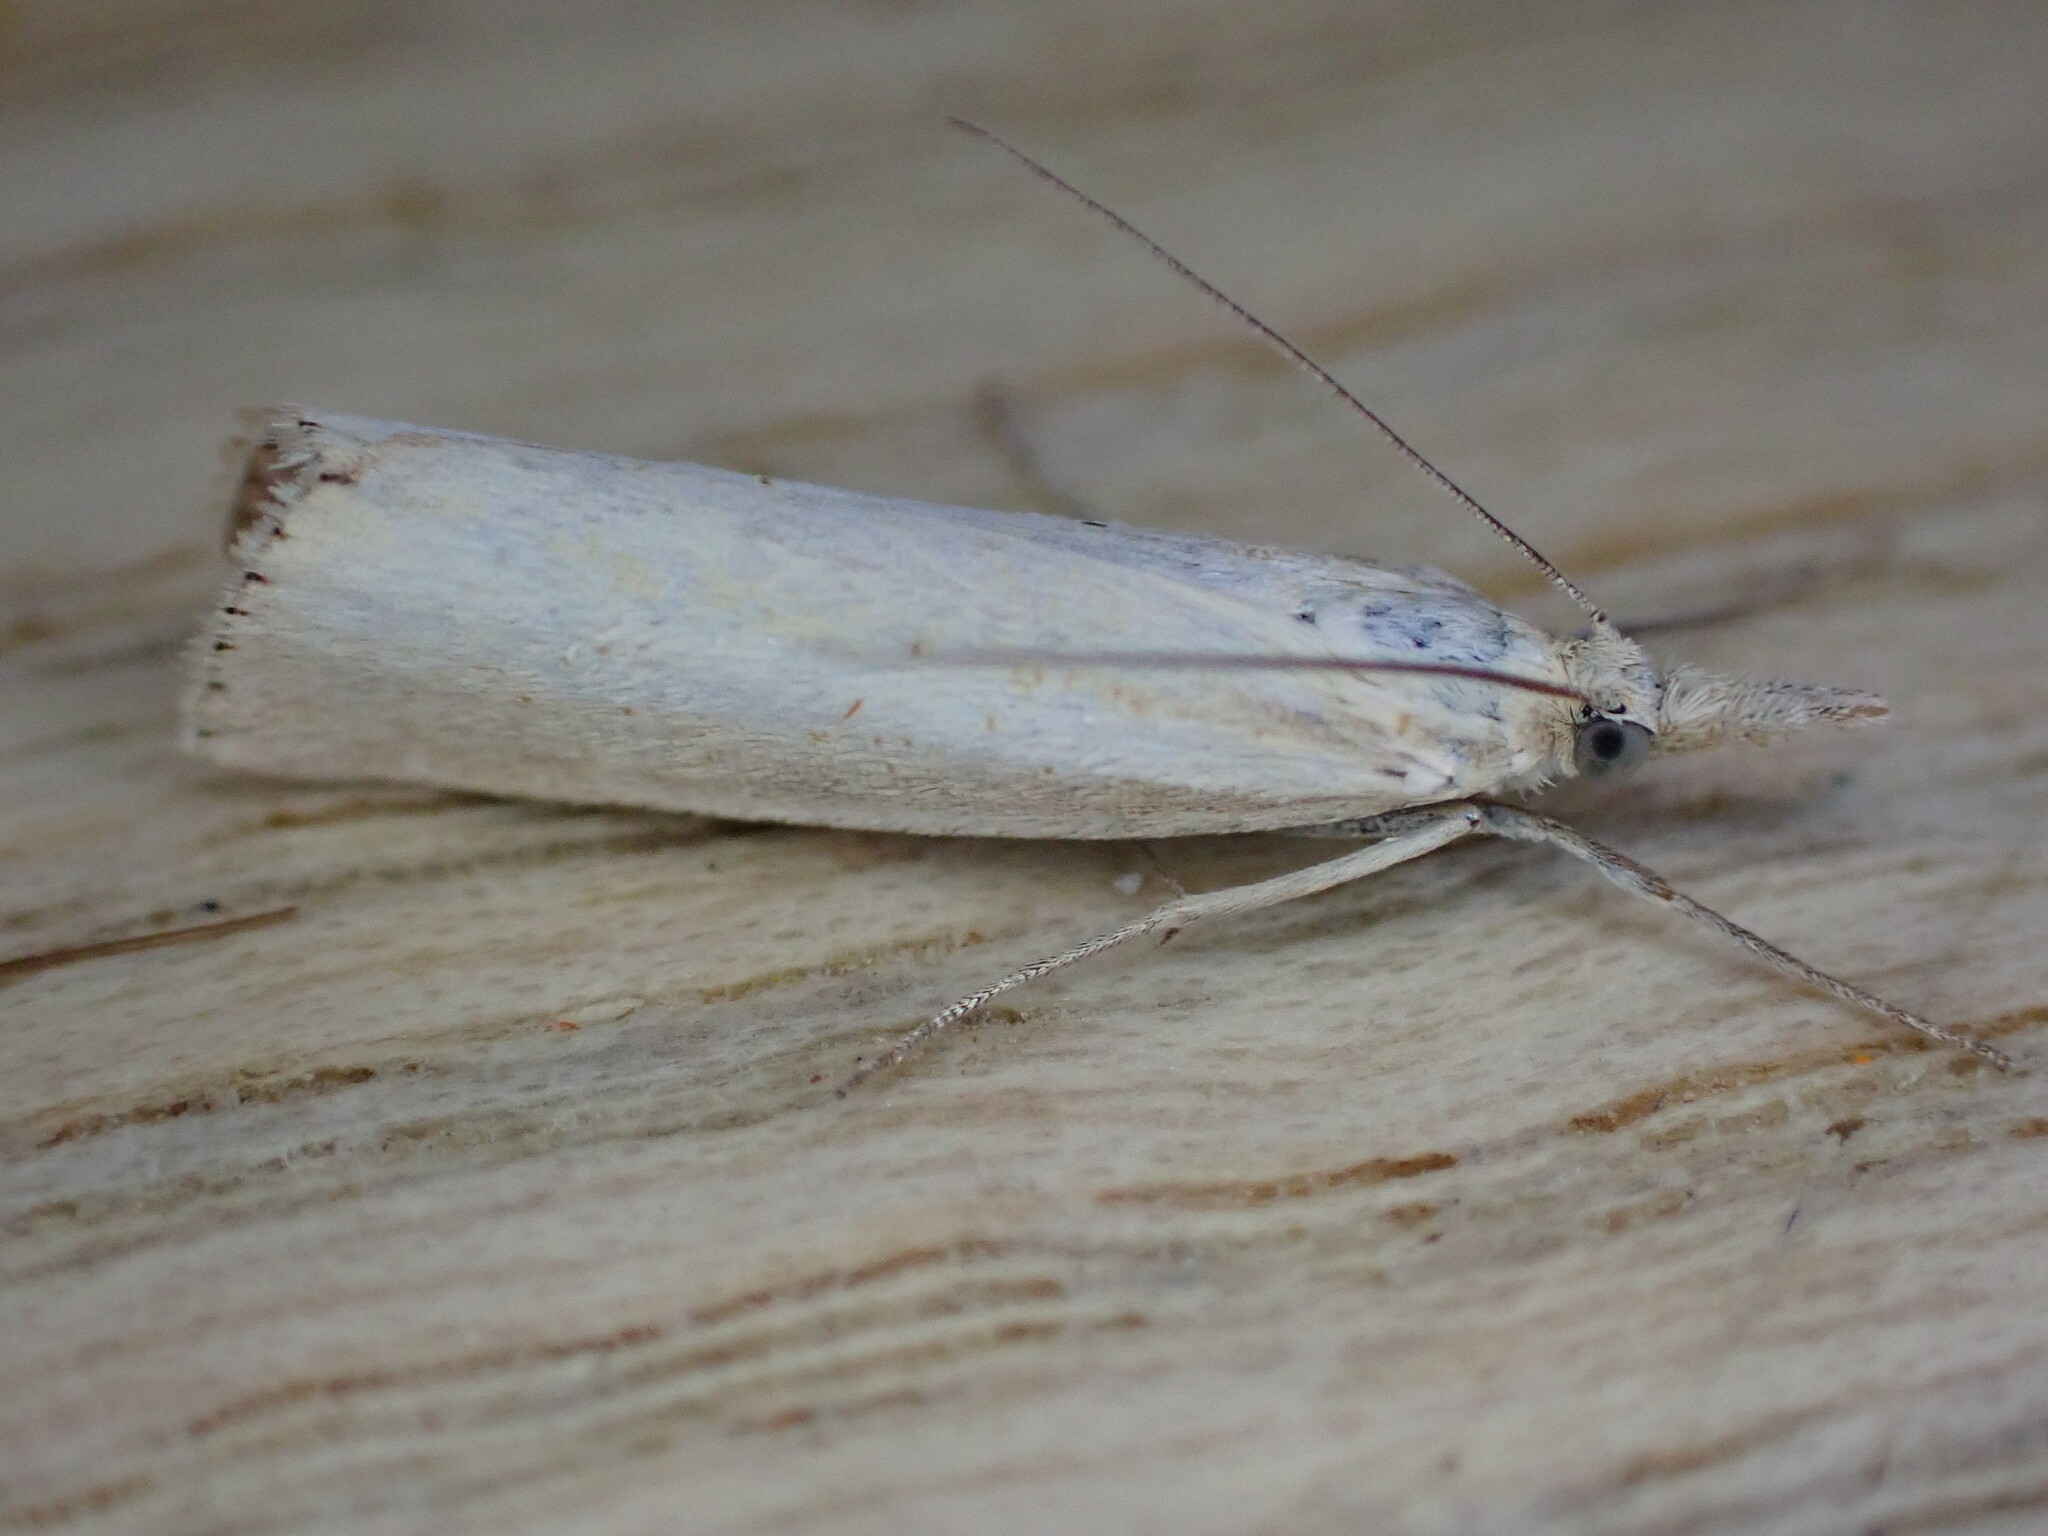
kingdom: Animalia
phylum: Arthropoda
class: Insecta
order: Lepidoptera
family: Crambidae
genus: Agriphila
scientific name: Agriphila straminella
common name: Straw grass-veneer
